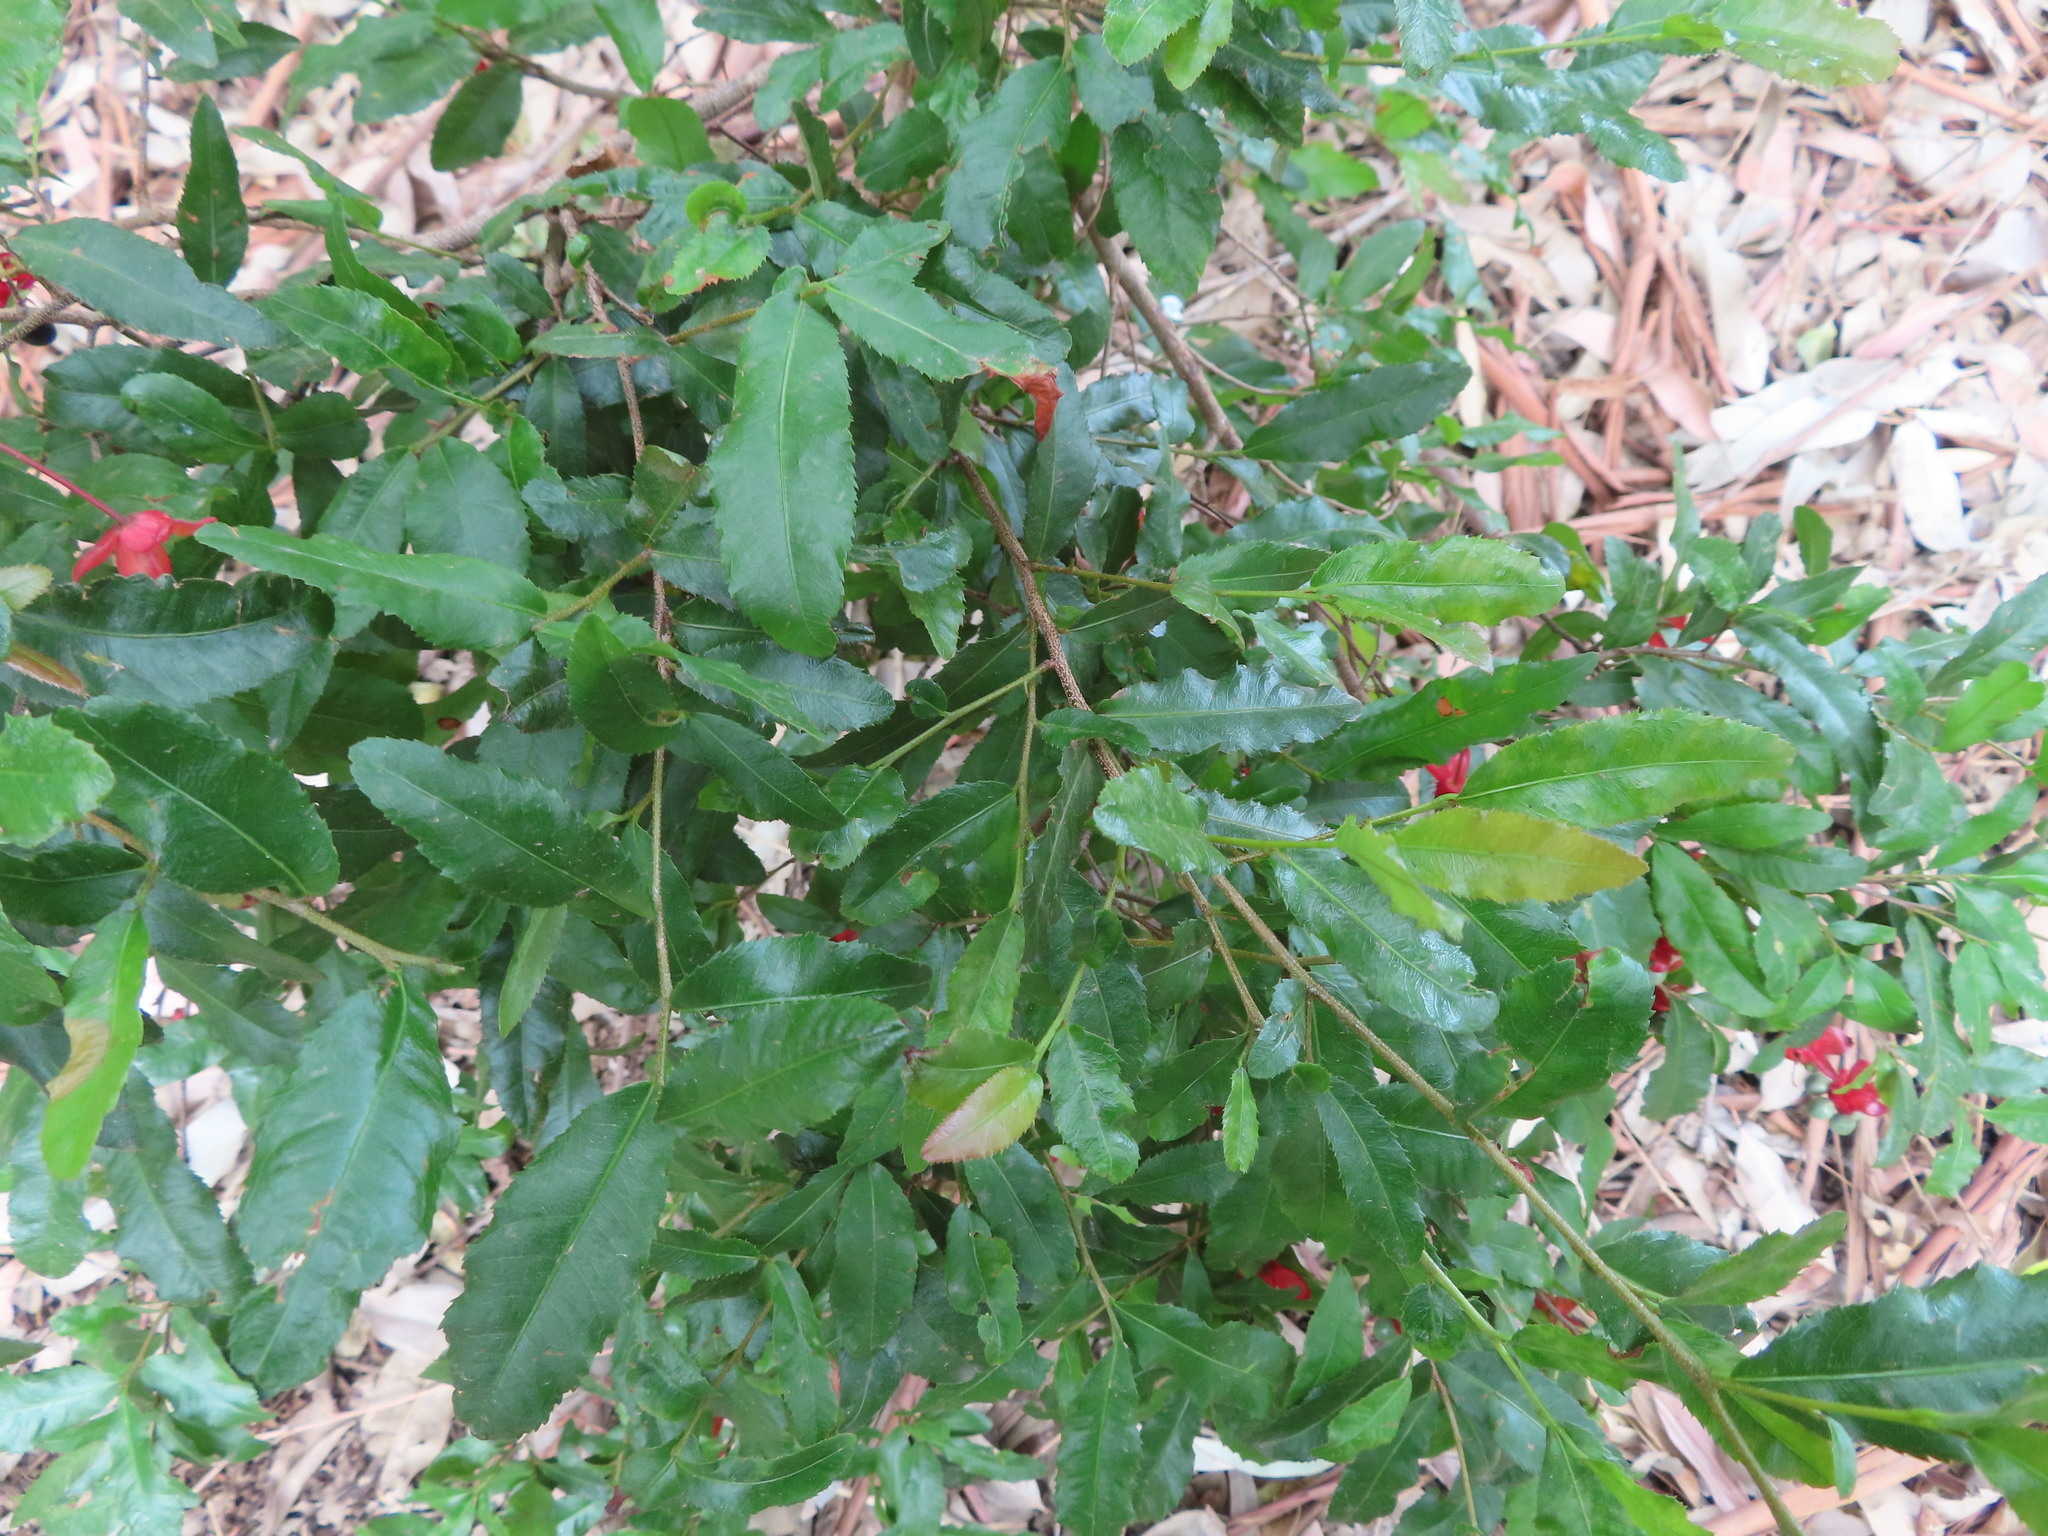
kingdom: Plantae
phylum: Tracheophyta
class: Magnoliopsida
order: Malpighiales
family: Ochnaceae
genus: Ochna
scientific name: Ochna serrulata
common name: Mickey mouse plant
